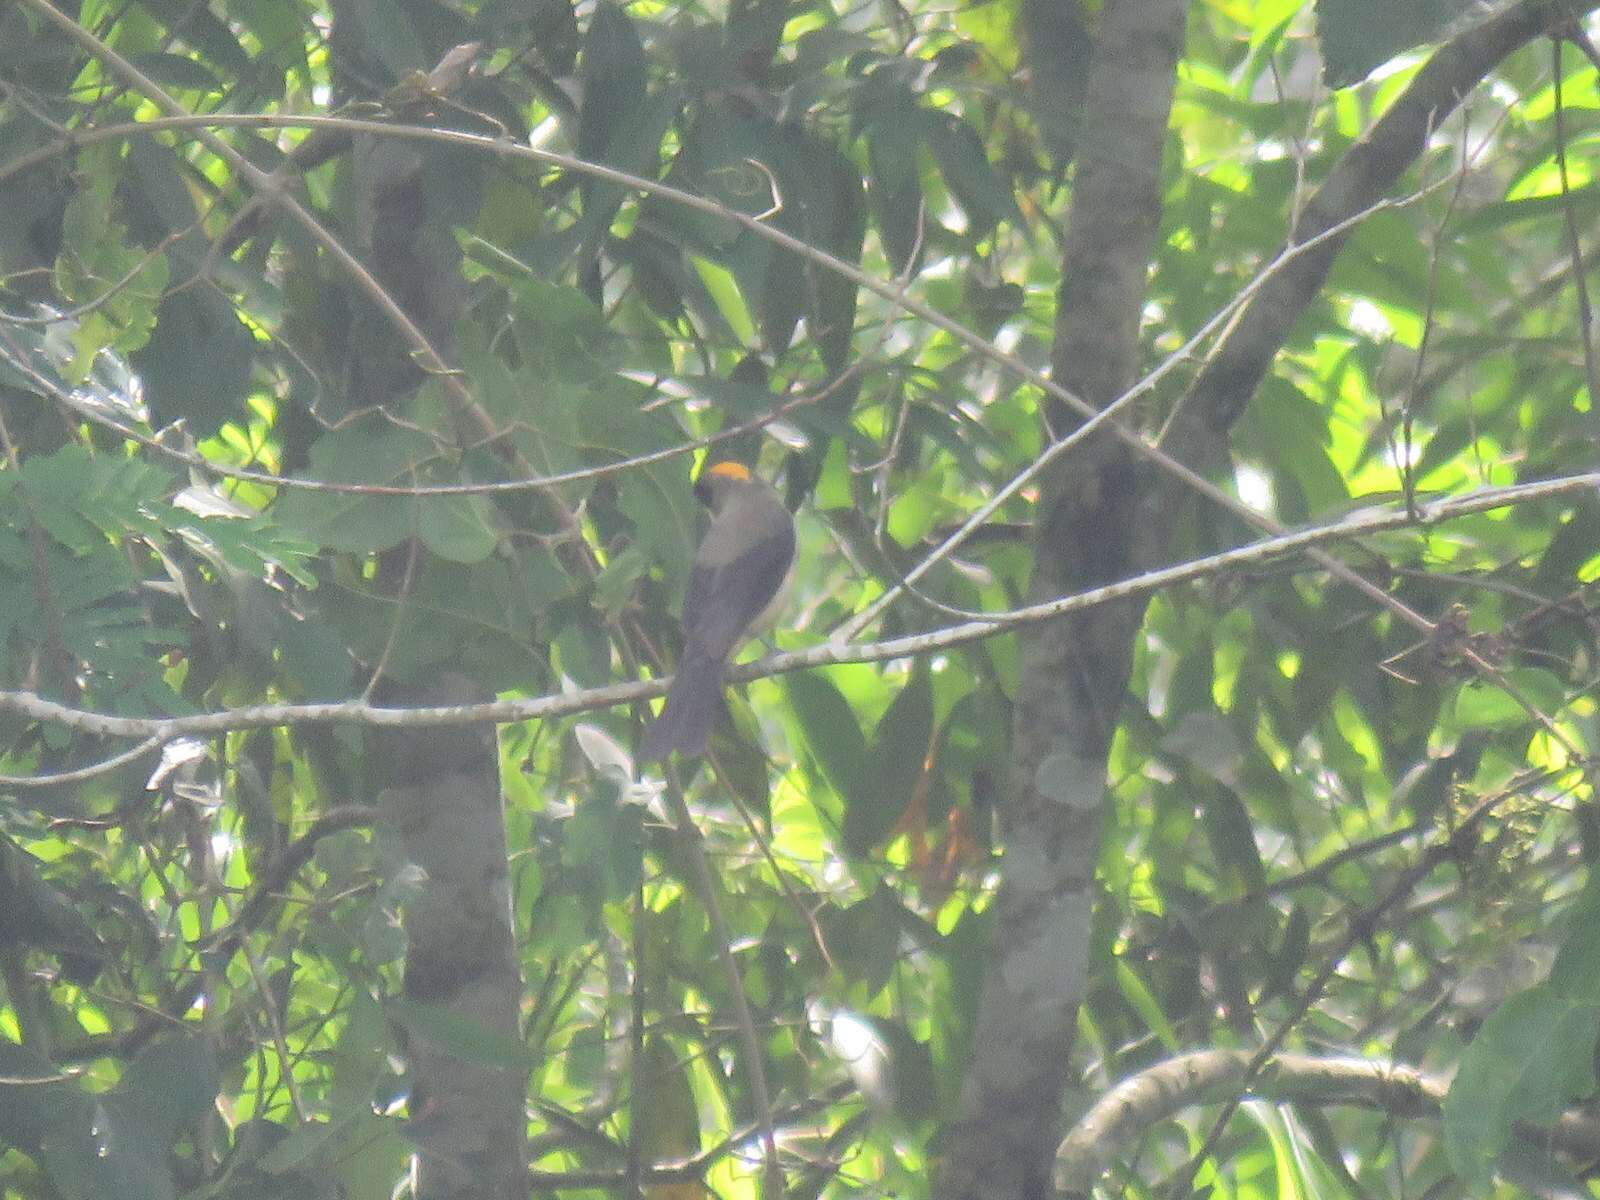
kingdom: Animalia
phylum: Chordata
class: Aves
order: Passeriformes
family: Thraupidae
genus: Trichothraupis
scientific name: Trichothraupis melanops
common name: Black-goggled tanager
